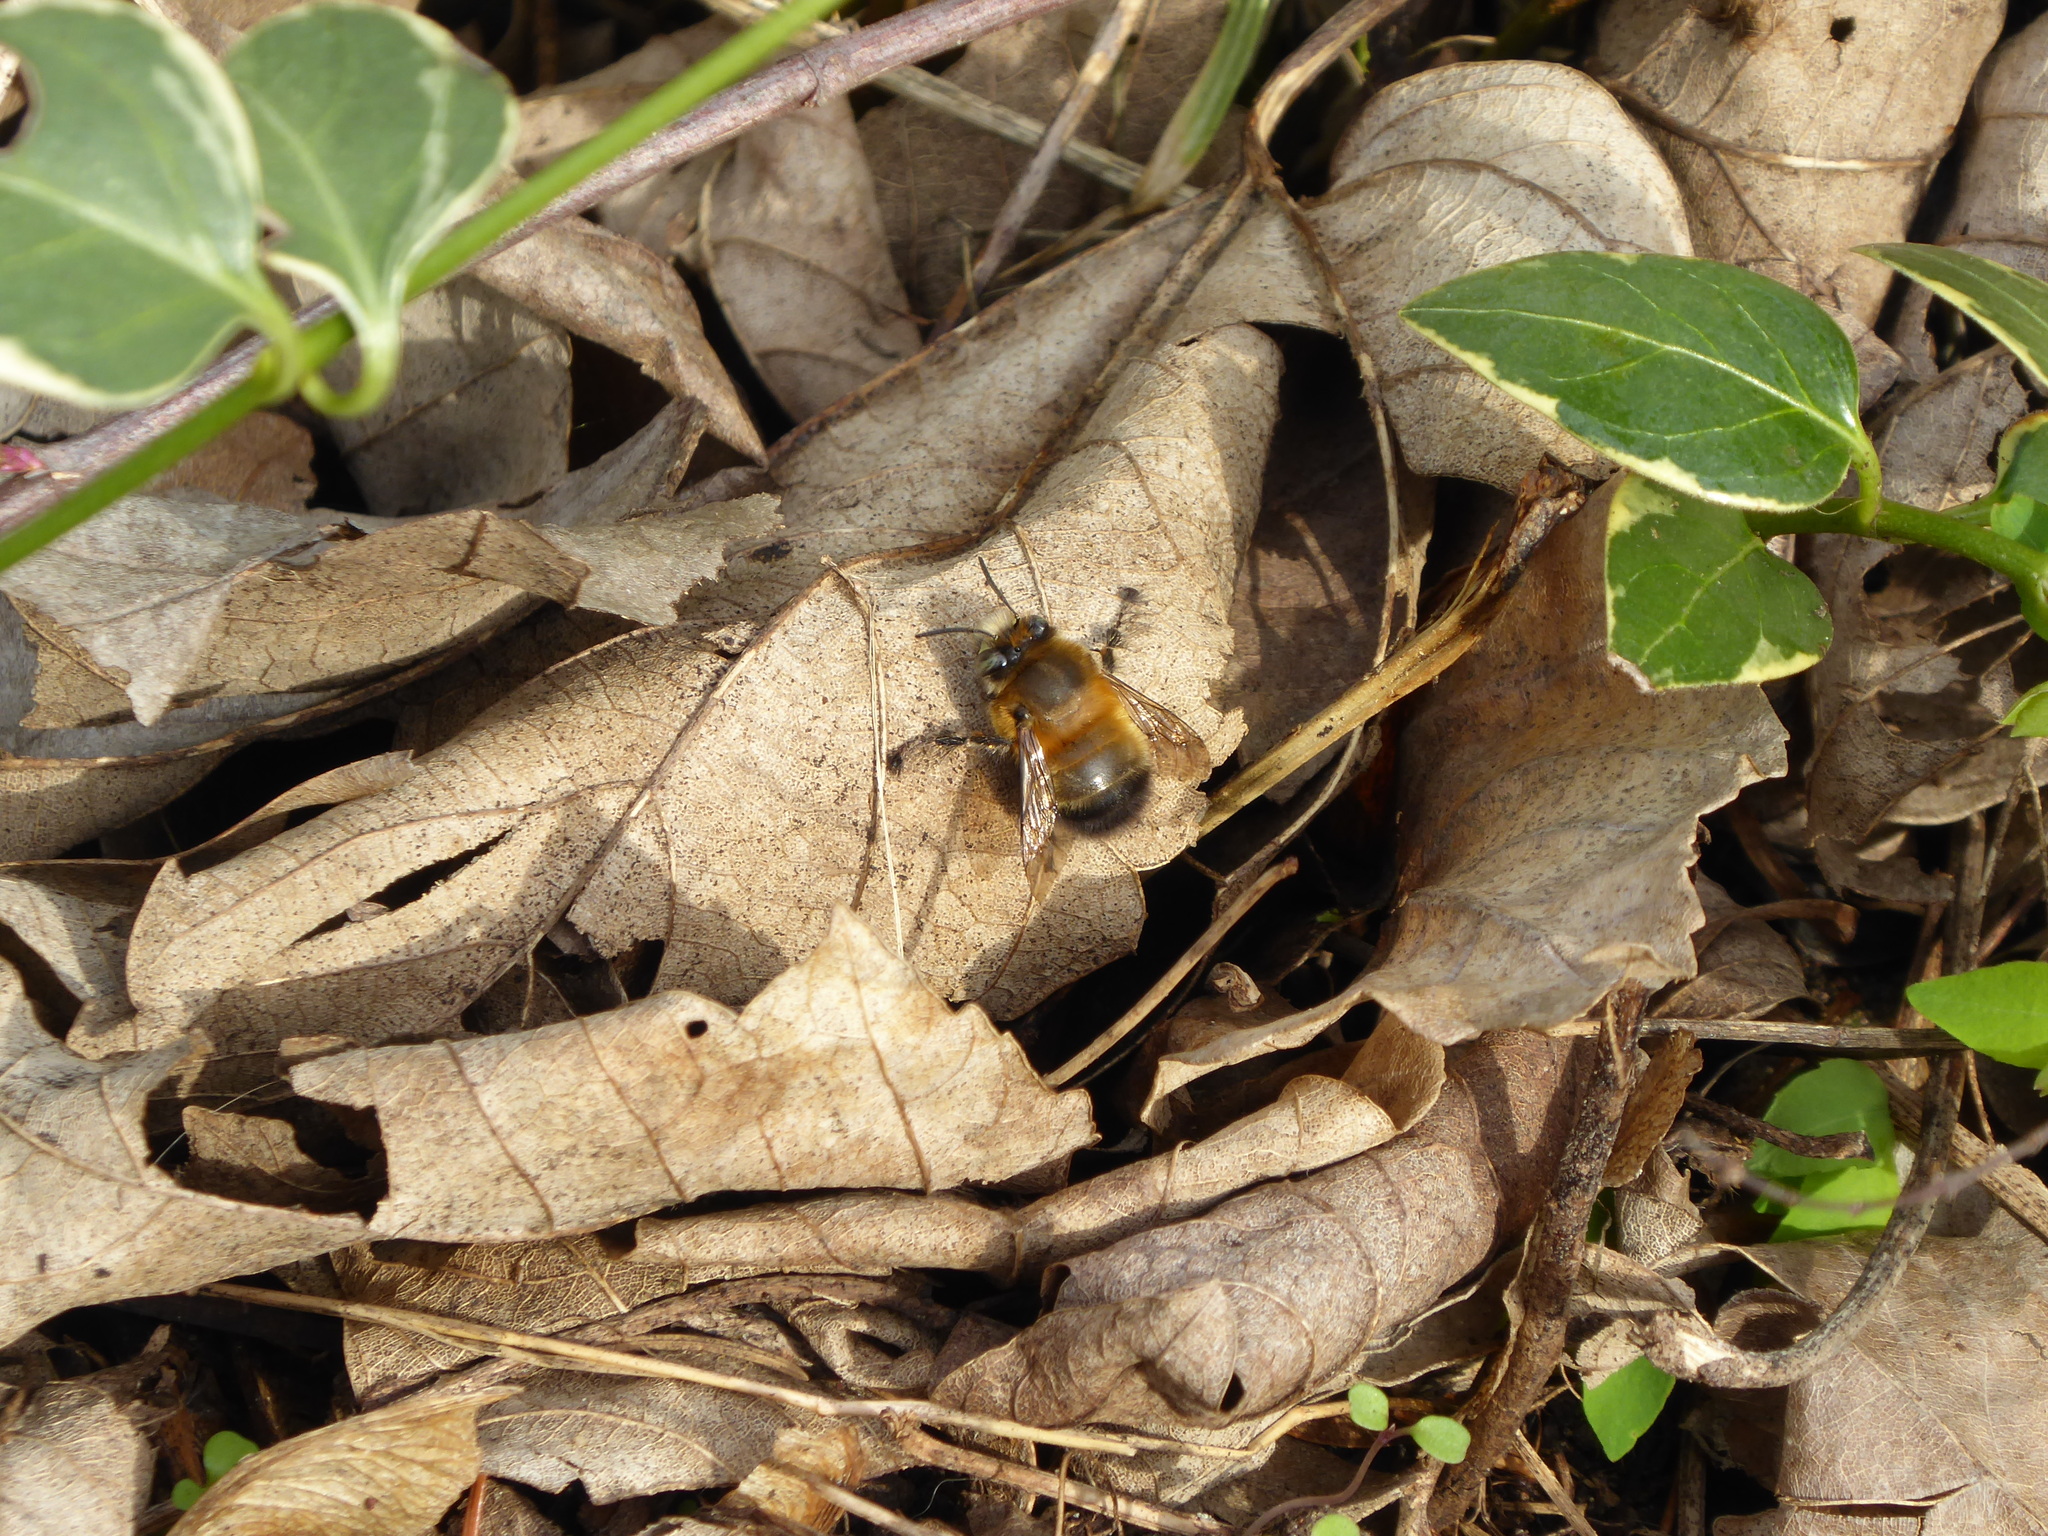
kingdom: Animalia
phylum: Arthropoda
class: Insecta
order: Hymenoptera
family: Apidae
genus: Anthophora
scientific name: Anthophora plumipes
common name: Hairy-footed flower bee
